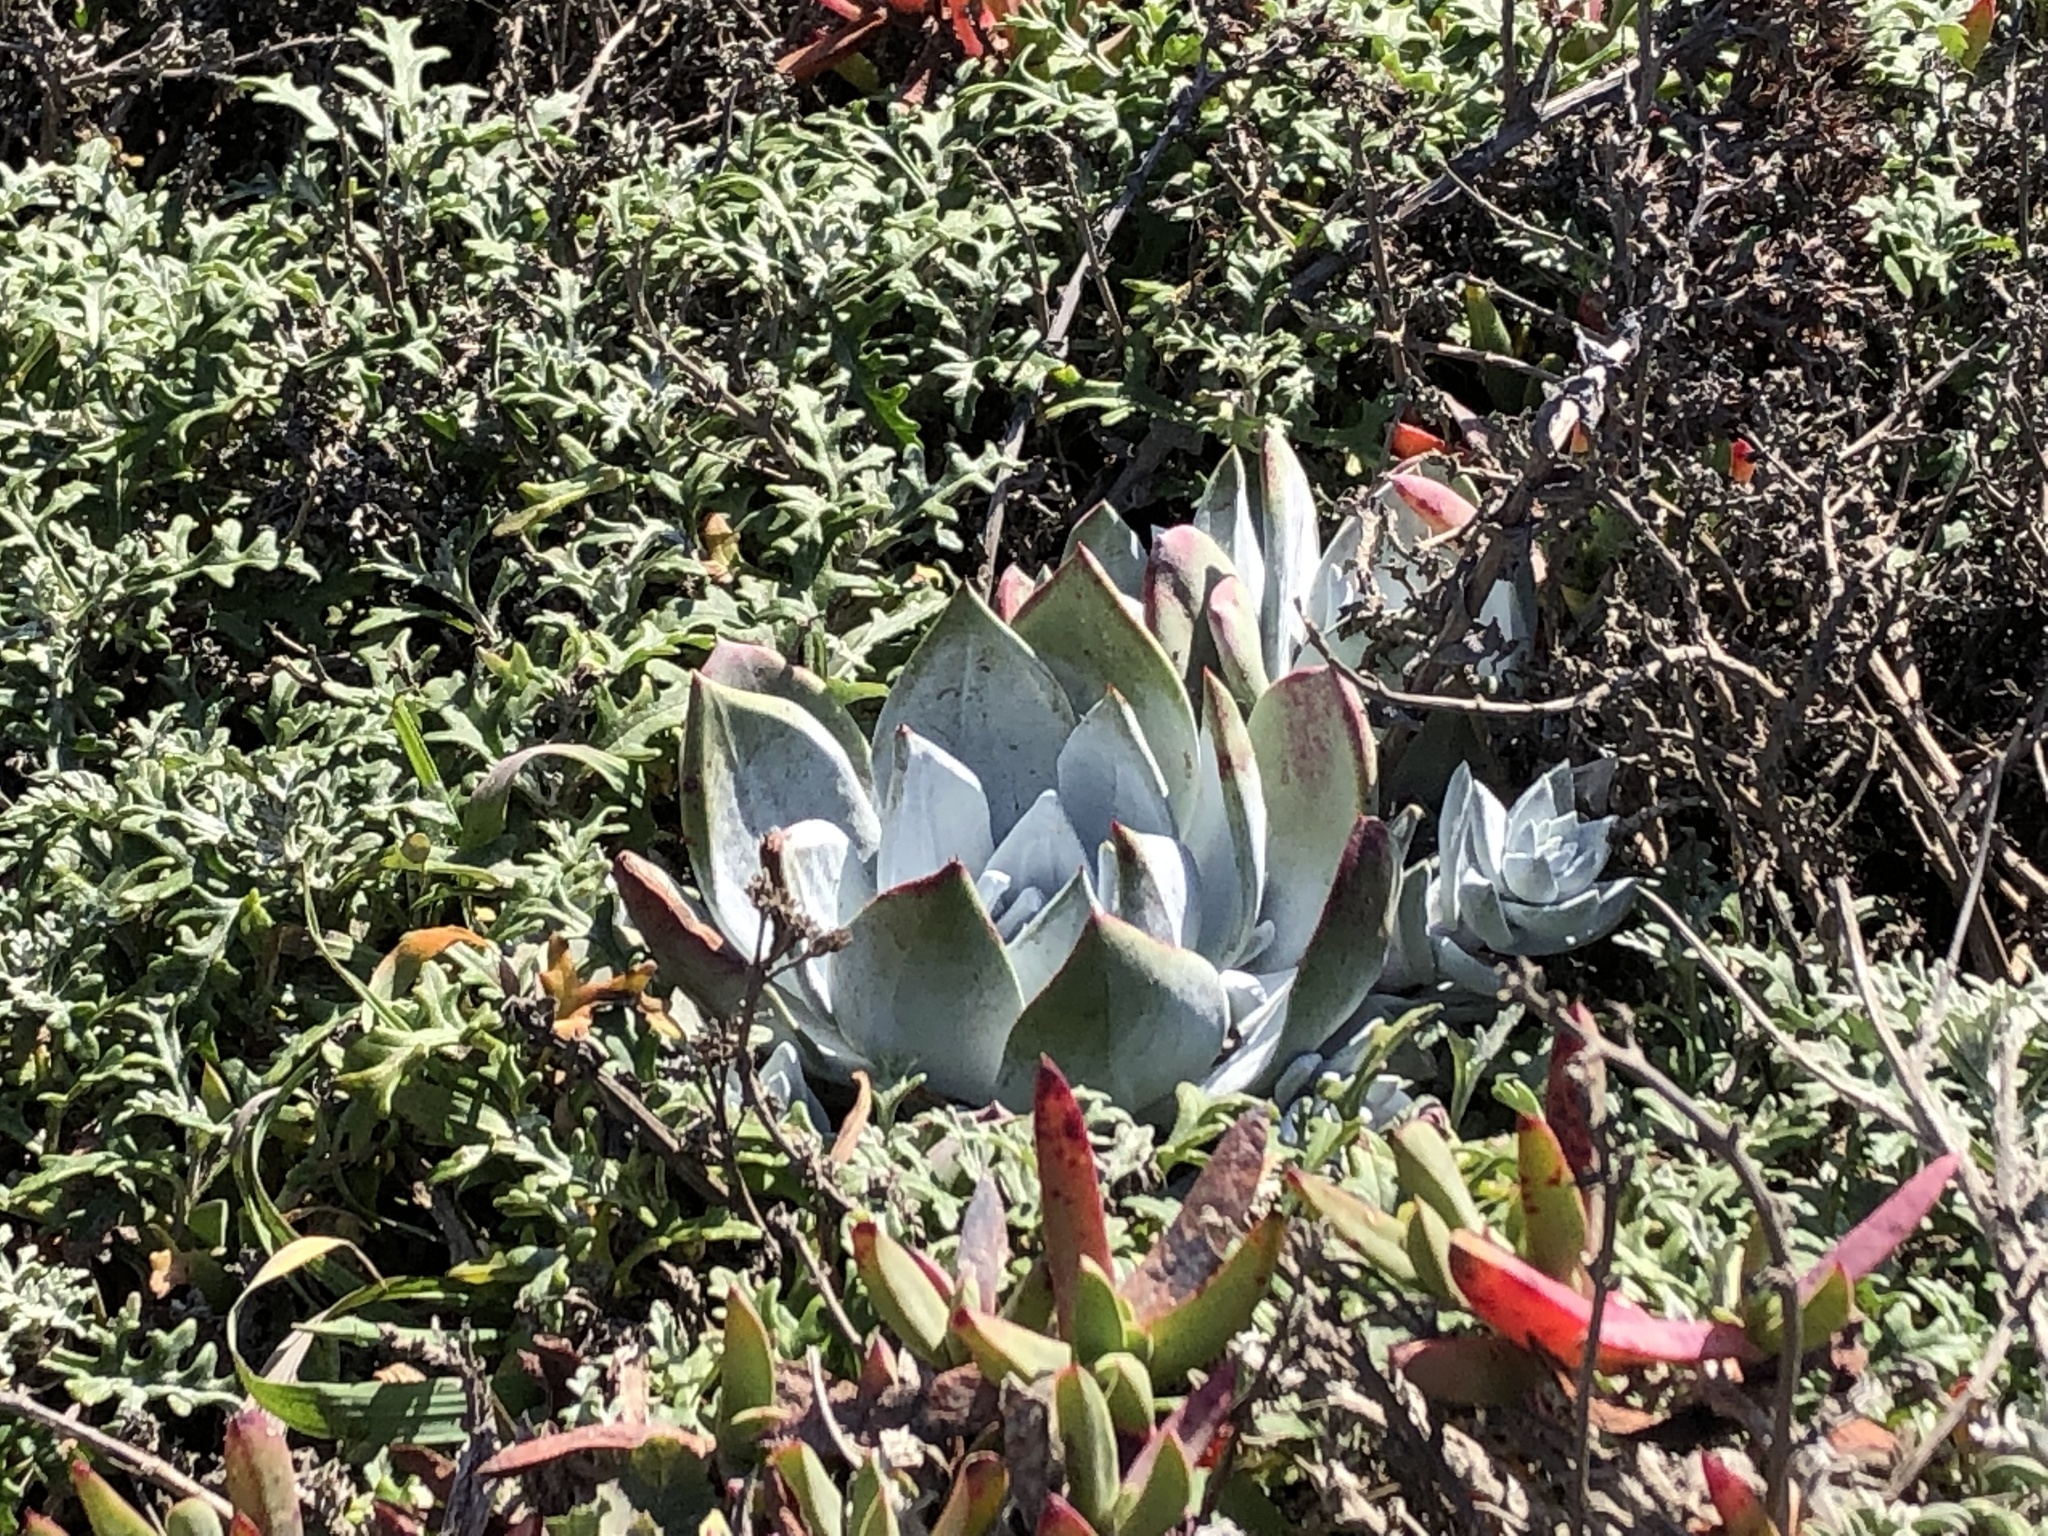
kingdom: Plantae
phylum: Tracheophyta
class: Magnoliopsida
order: Saxifragales
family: Crassulaceae
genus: Dudleya
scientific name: Dudleya farinosa
